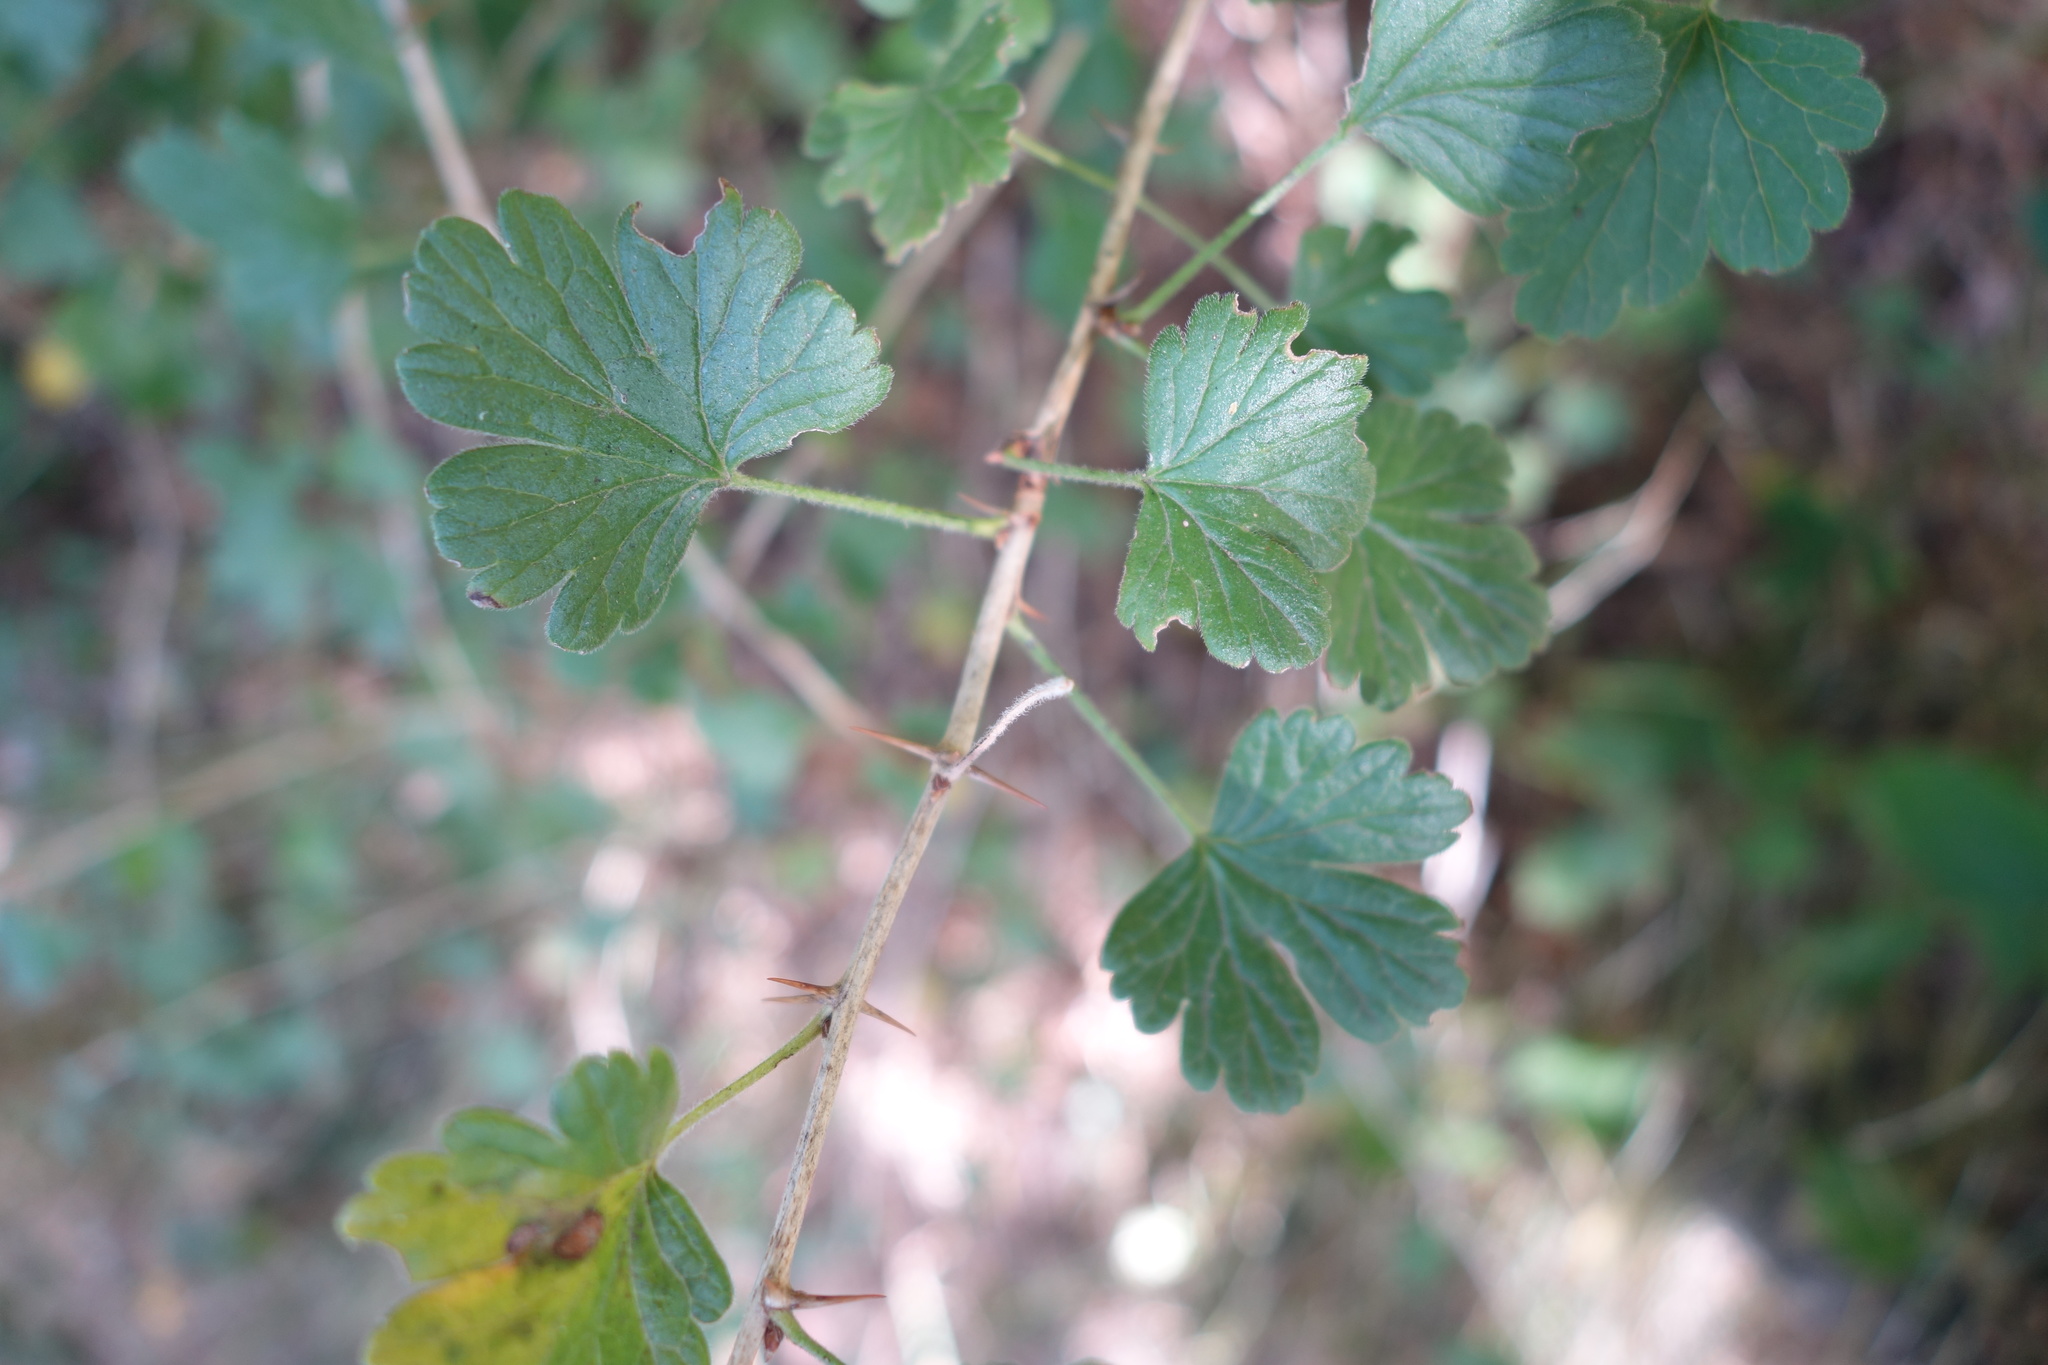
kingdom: Plantae
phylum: Tracheophyta
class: Magnoliopsida
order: Saxifragales
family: Grossulariaceae
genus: Ribes
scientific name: Ribes uva-crispa
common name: Gooseberry
